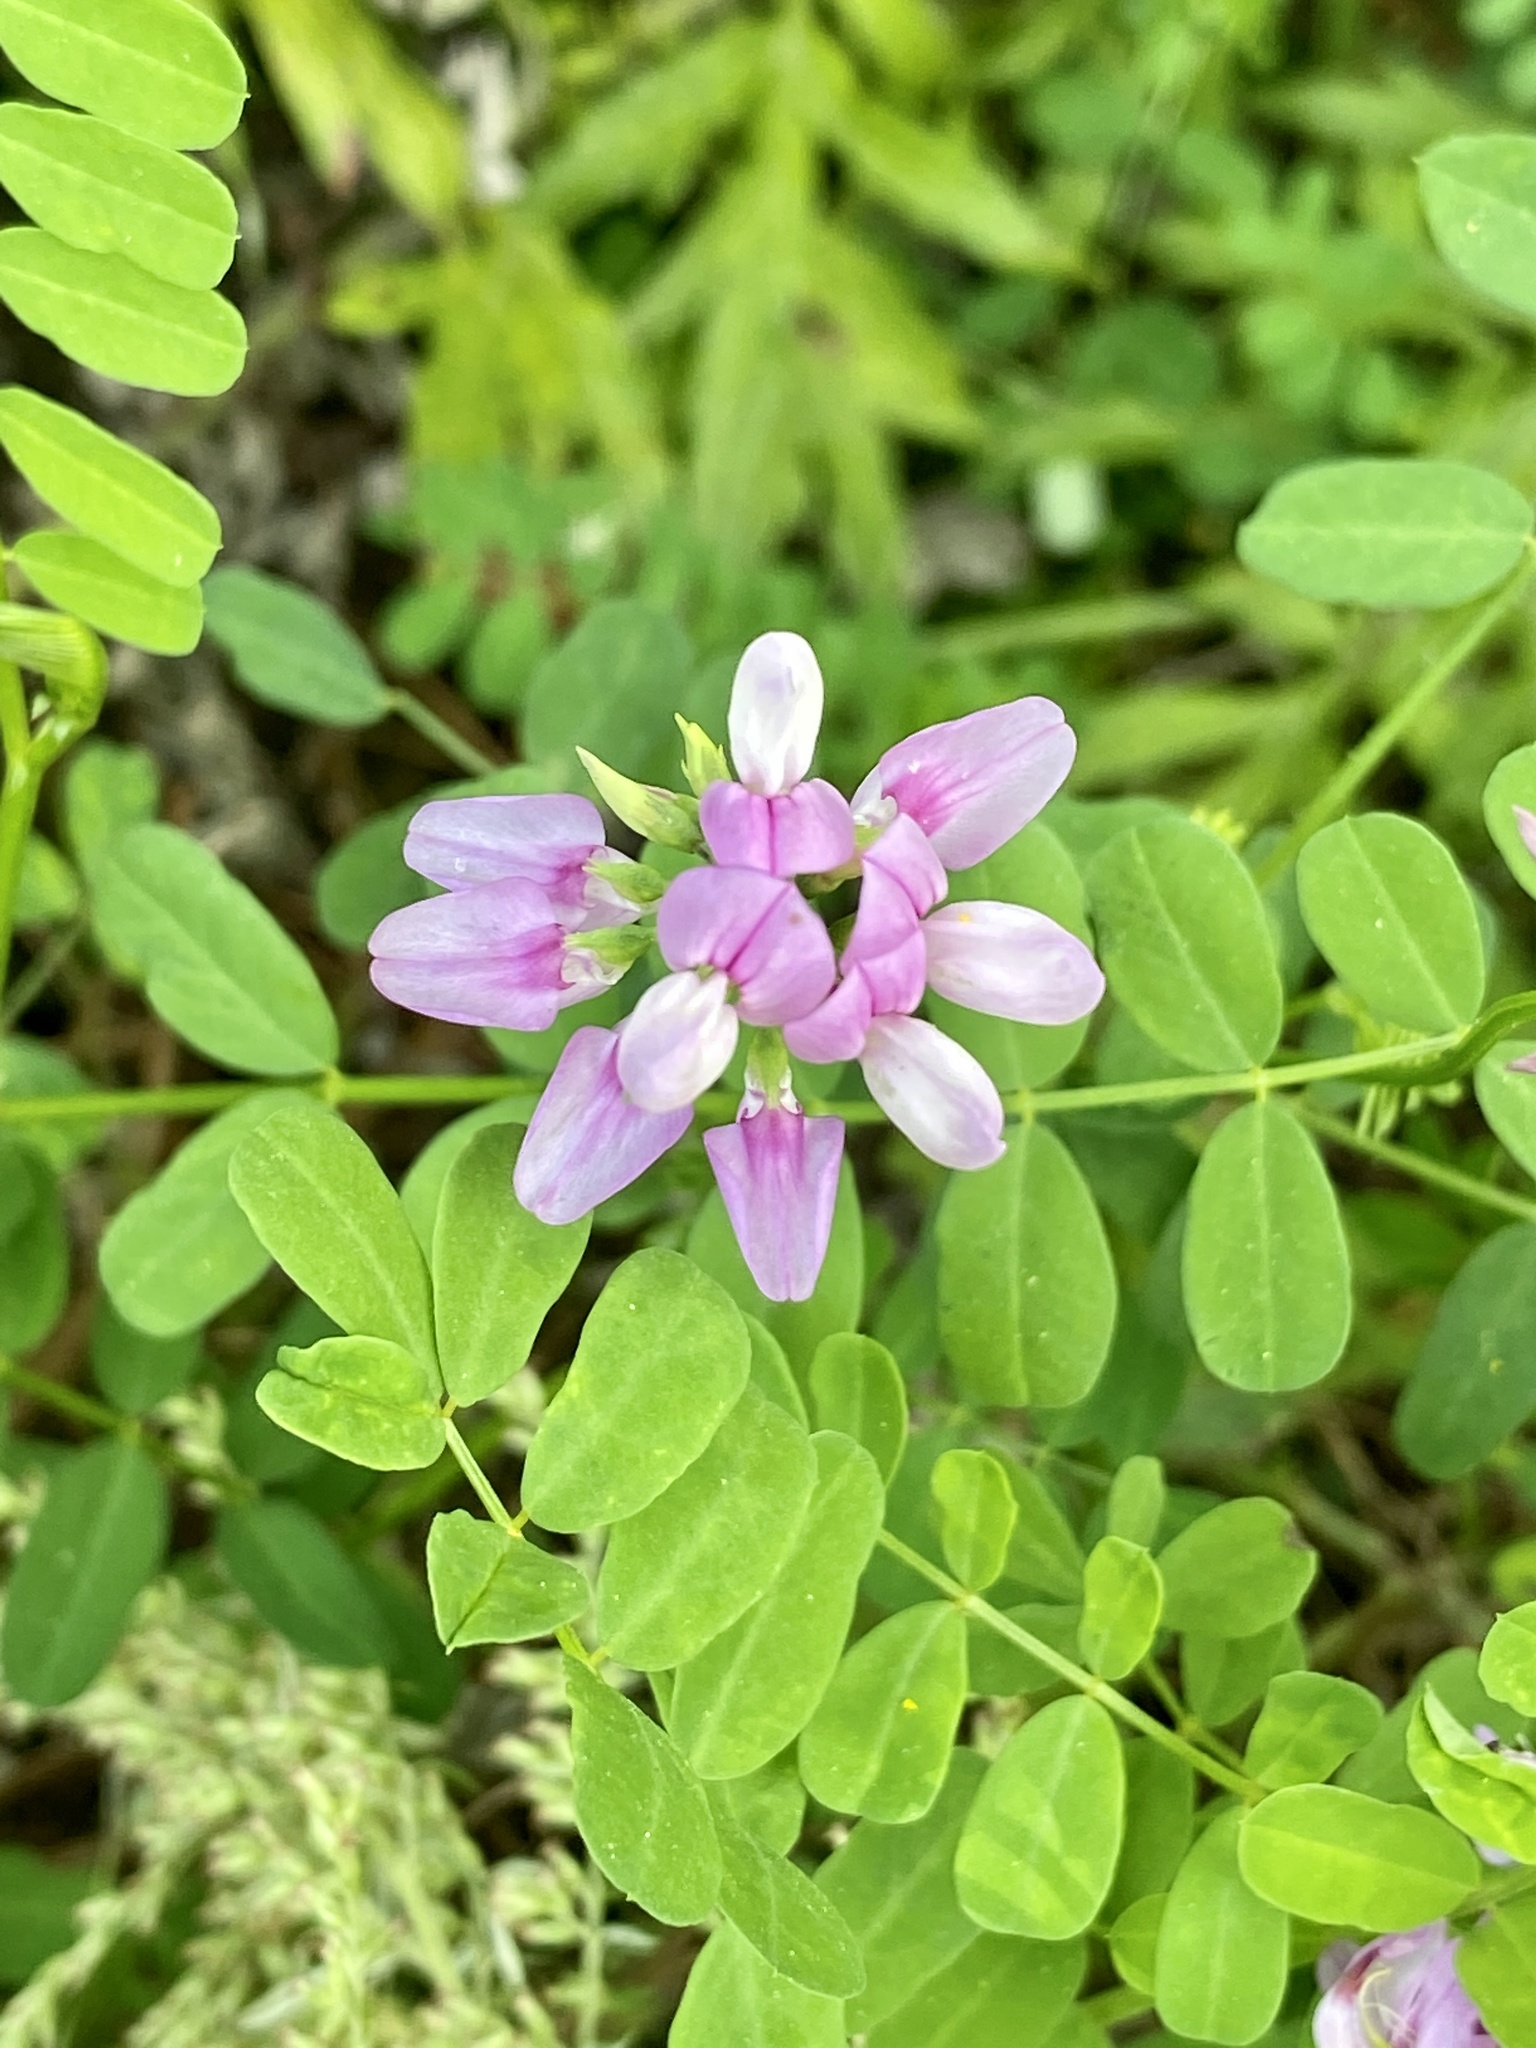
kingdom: Plantae
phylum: Tracheophyta
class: Magnoliopsida
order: Fabales
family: Fabaceae
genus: Coronilla
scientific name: Coronilla varia
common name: Crownvetch
